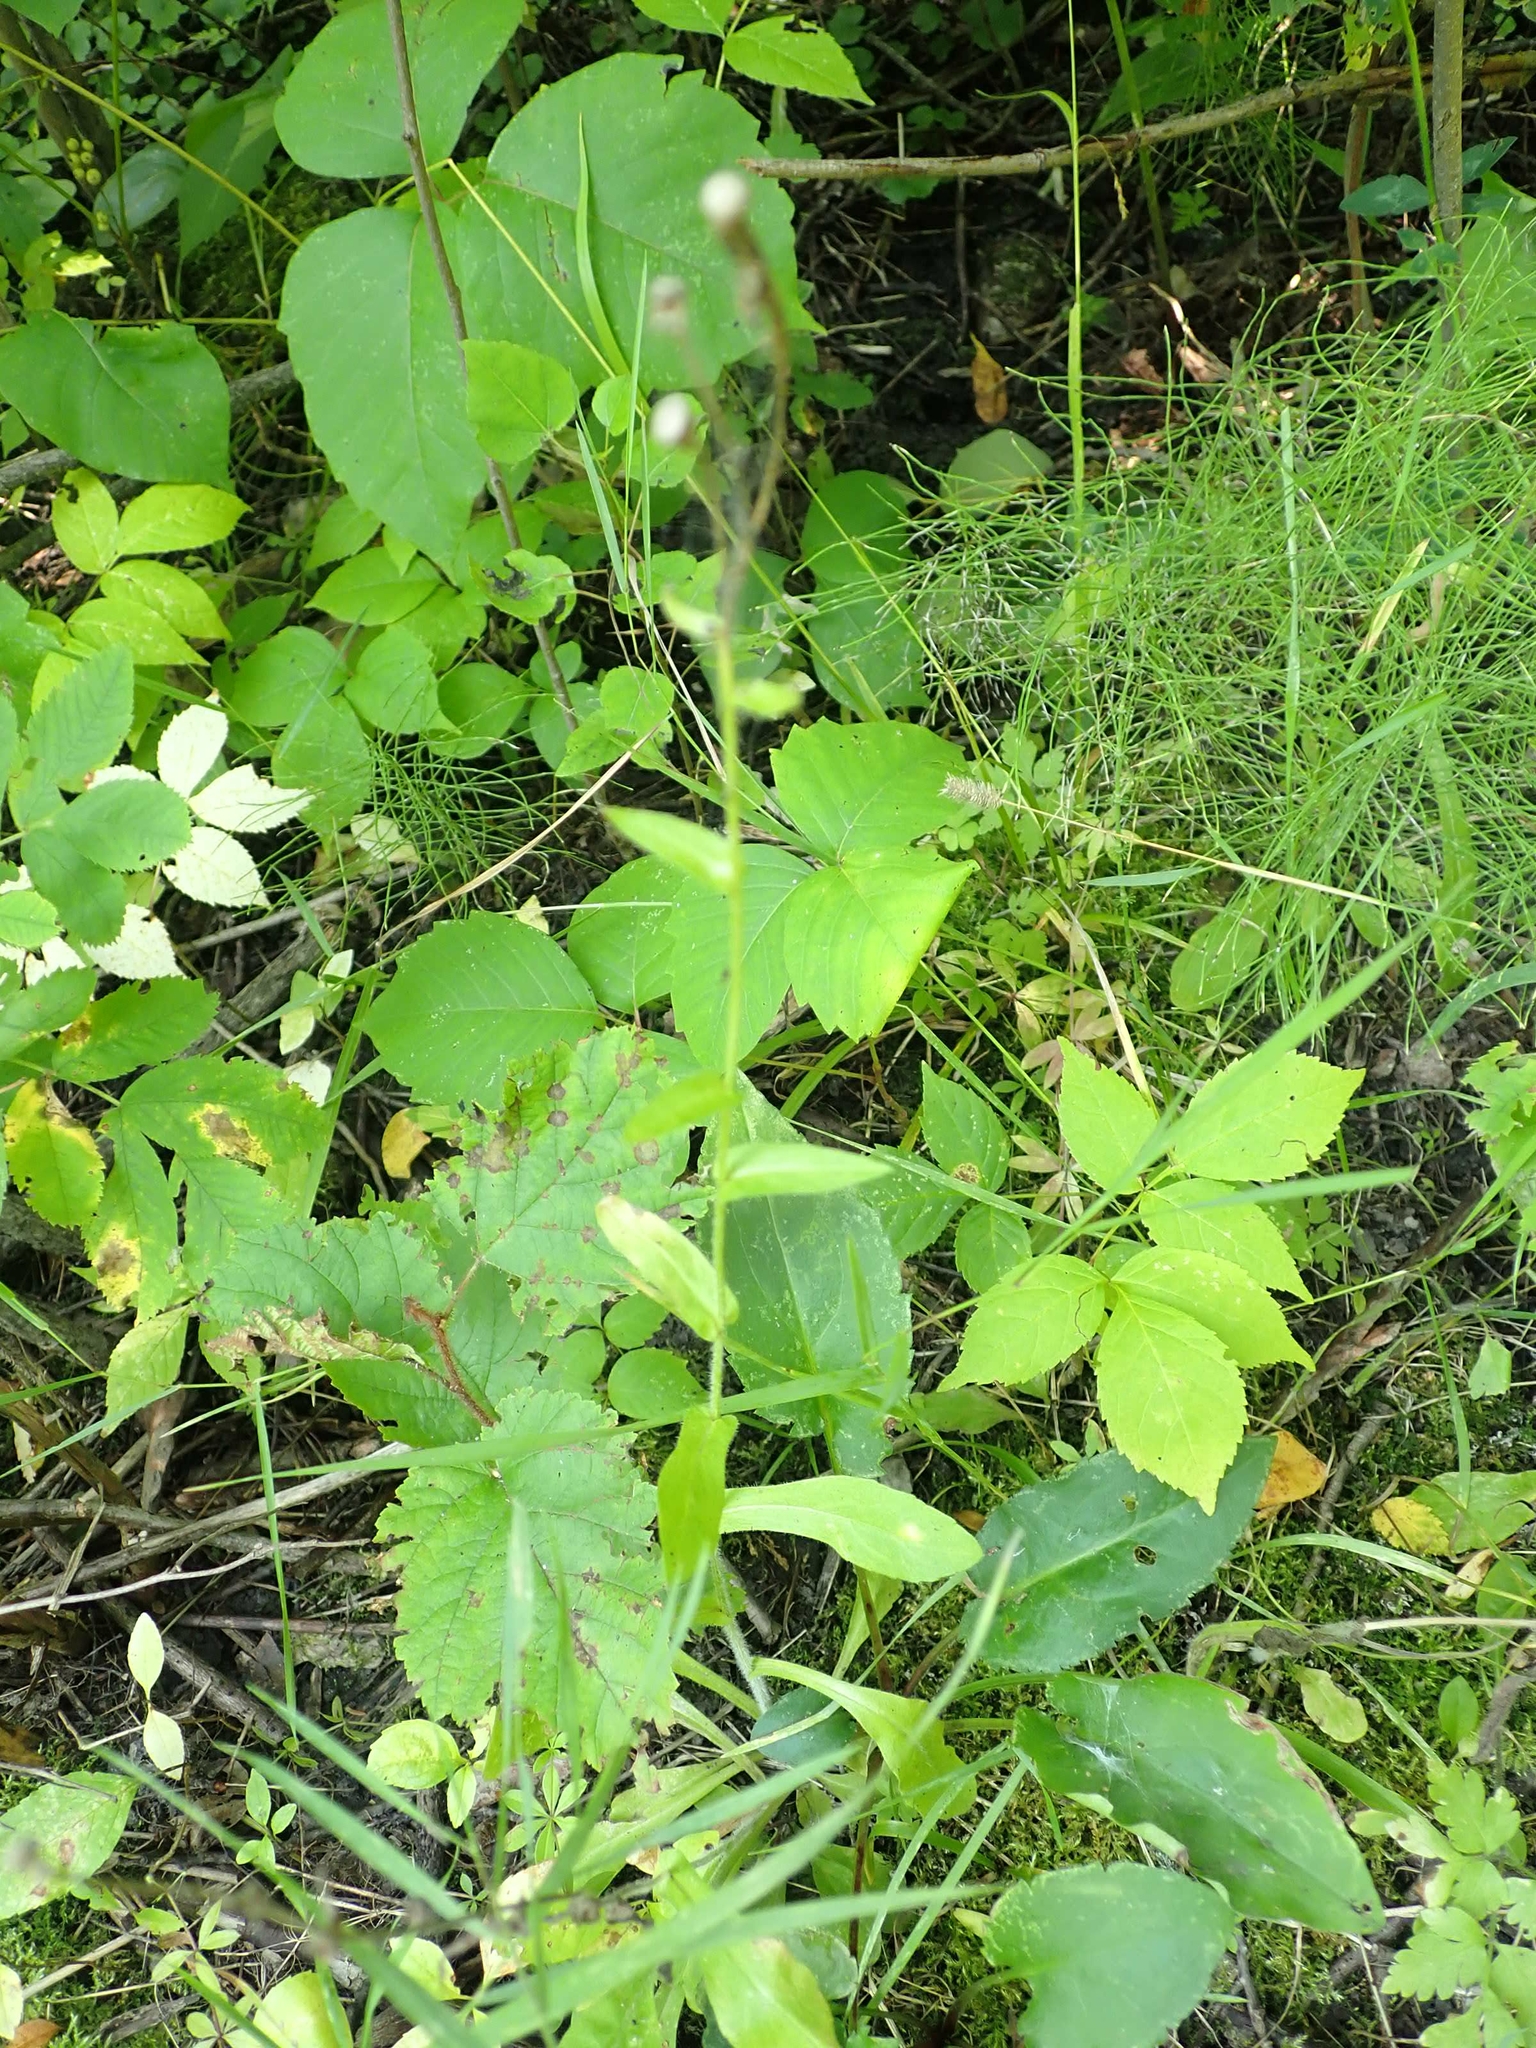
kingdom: Plantae
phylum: Tracheophyta
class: Magnoliopsida
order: Asterales
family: Asteraceae
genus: Erigeron
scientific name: Erigeron philadelphicus
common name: Robin's-plantain
